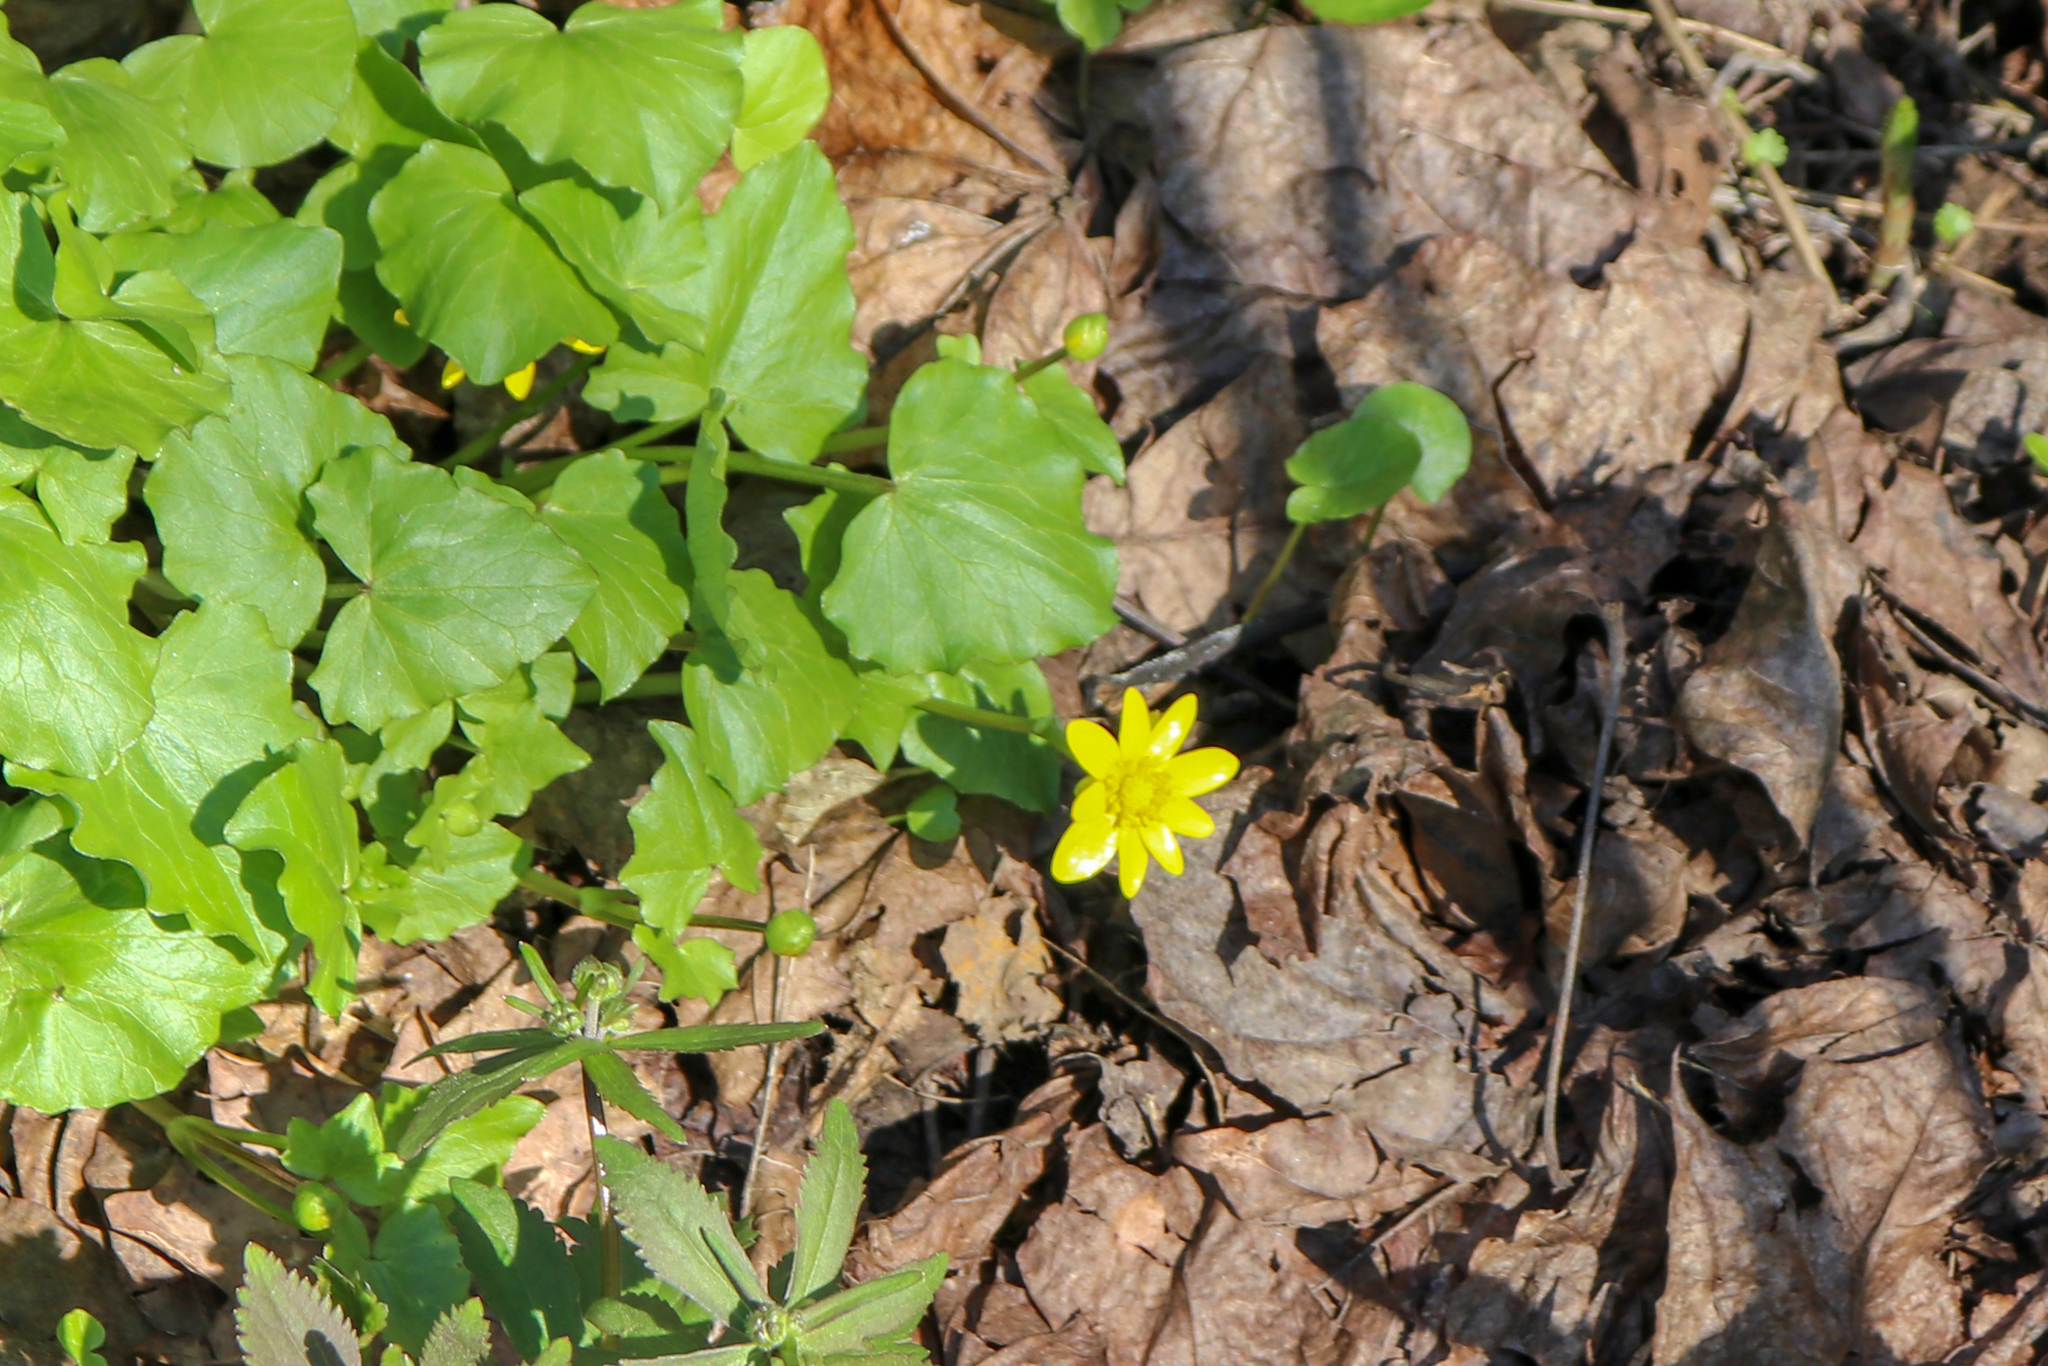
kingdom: Plantae
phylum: Tracheophyta
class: Magnoliopsida
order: Ranunculales
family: Ranunculaceae
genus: Ficaria
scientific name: Ficaria verna
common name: Lesser celandine
